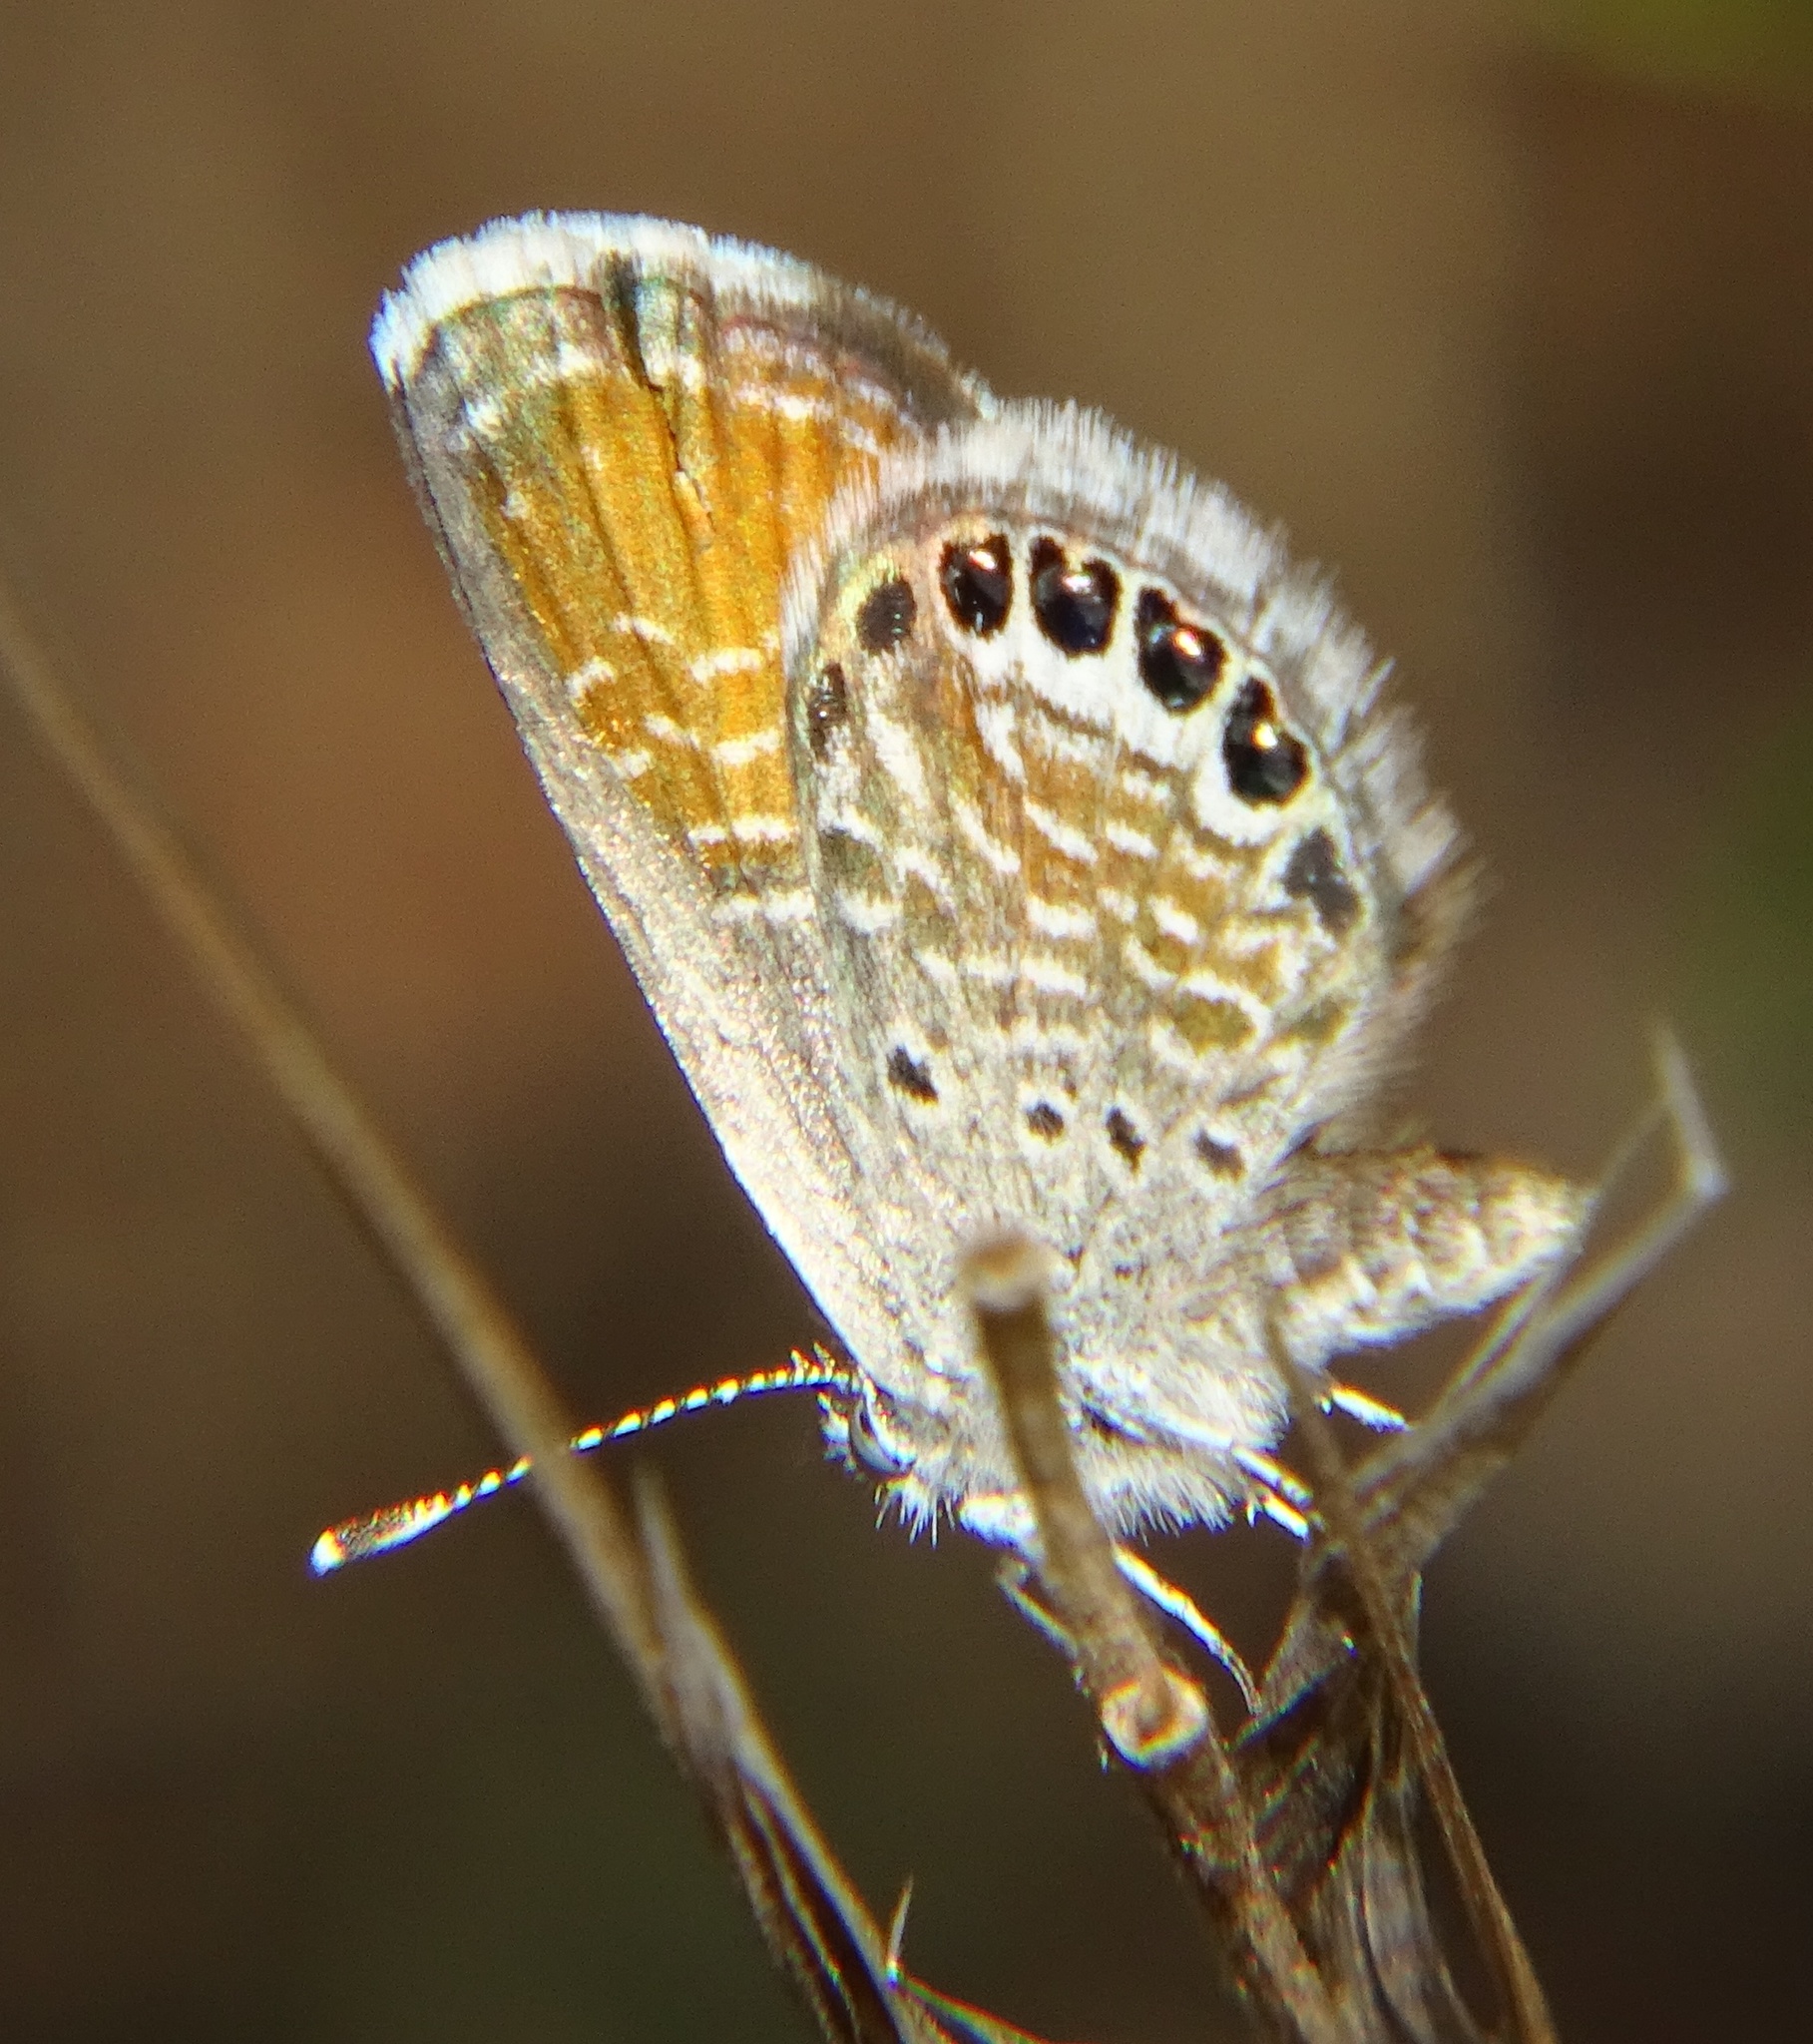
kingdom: Animalia
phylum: Arthropoda
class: Insecta
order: Lepidoptera
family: Lycaenidae
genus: Brephidium
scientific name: Brephidium exilis
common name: Pygmy blue
